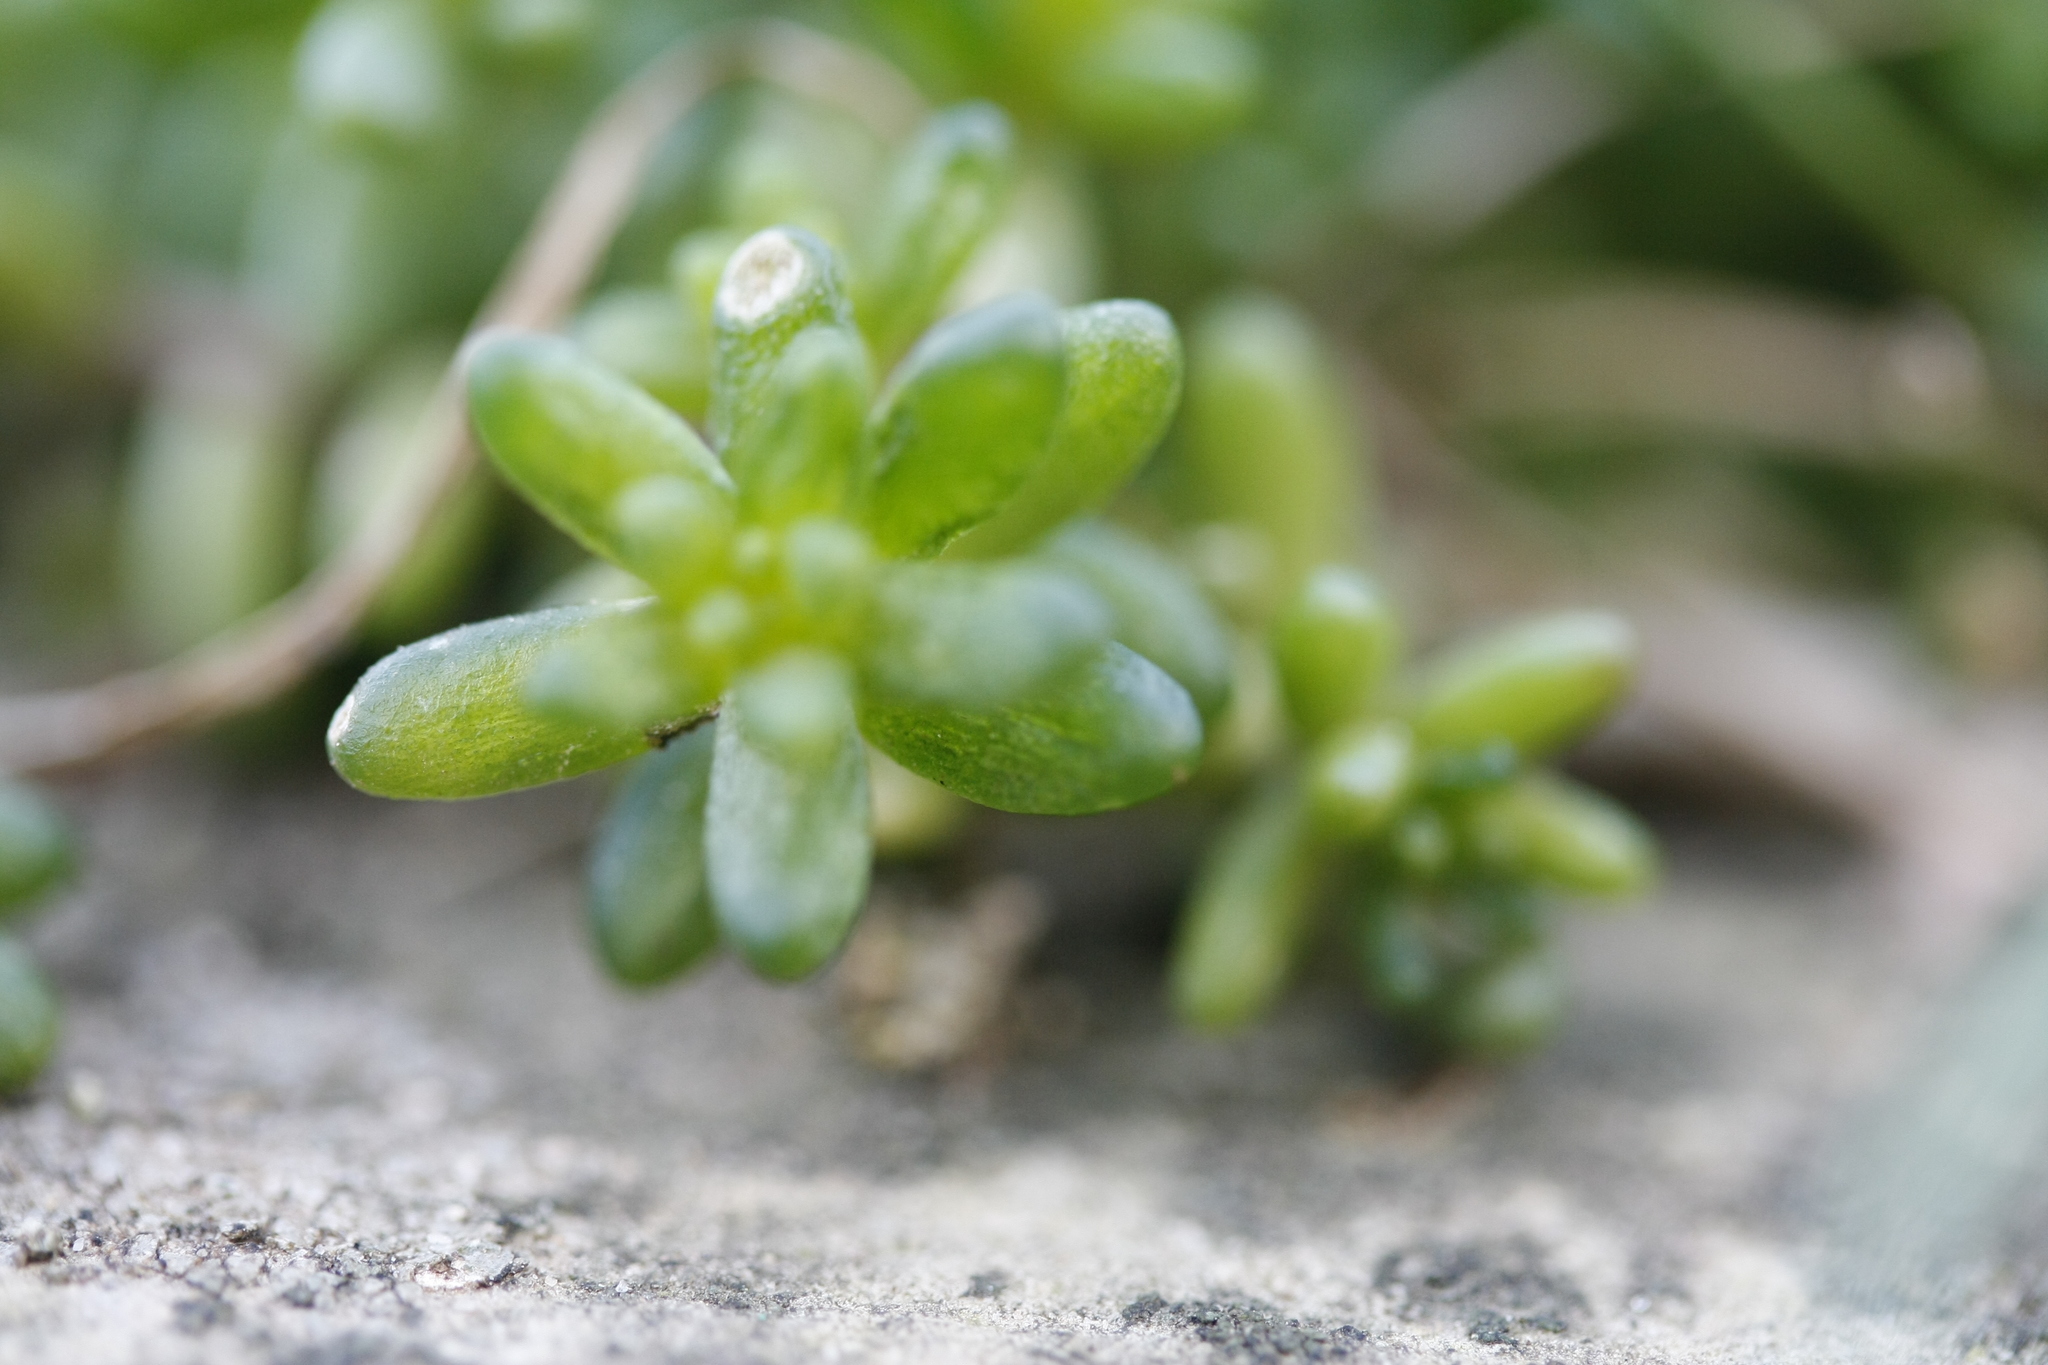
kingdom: Plantae
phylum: Tracheophyta
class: Magnoliopsida
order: Saxifragales
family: Crassulaceae
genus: Sedum
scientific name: Sedum album
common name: White stonecrop
